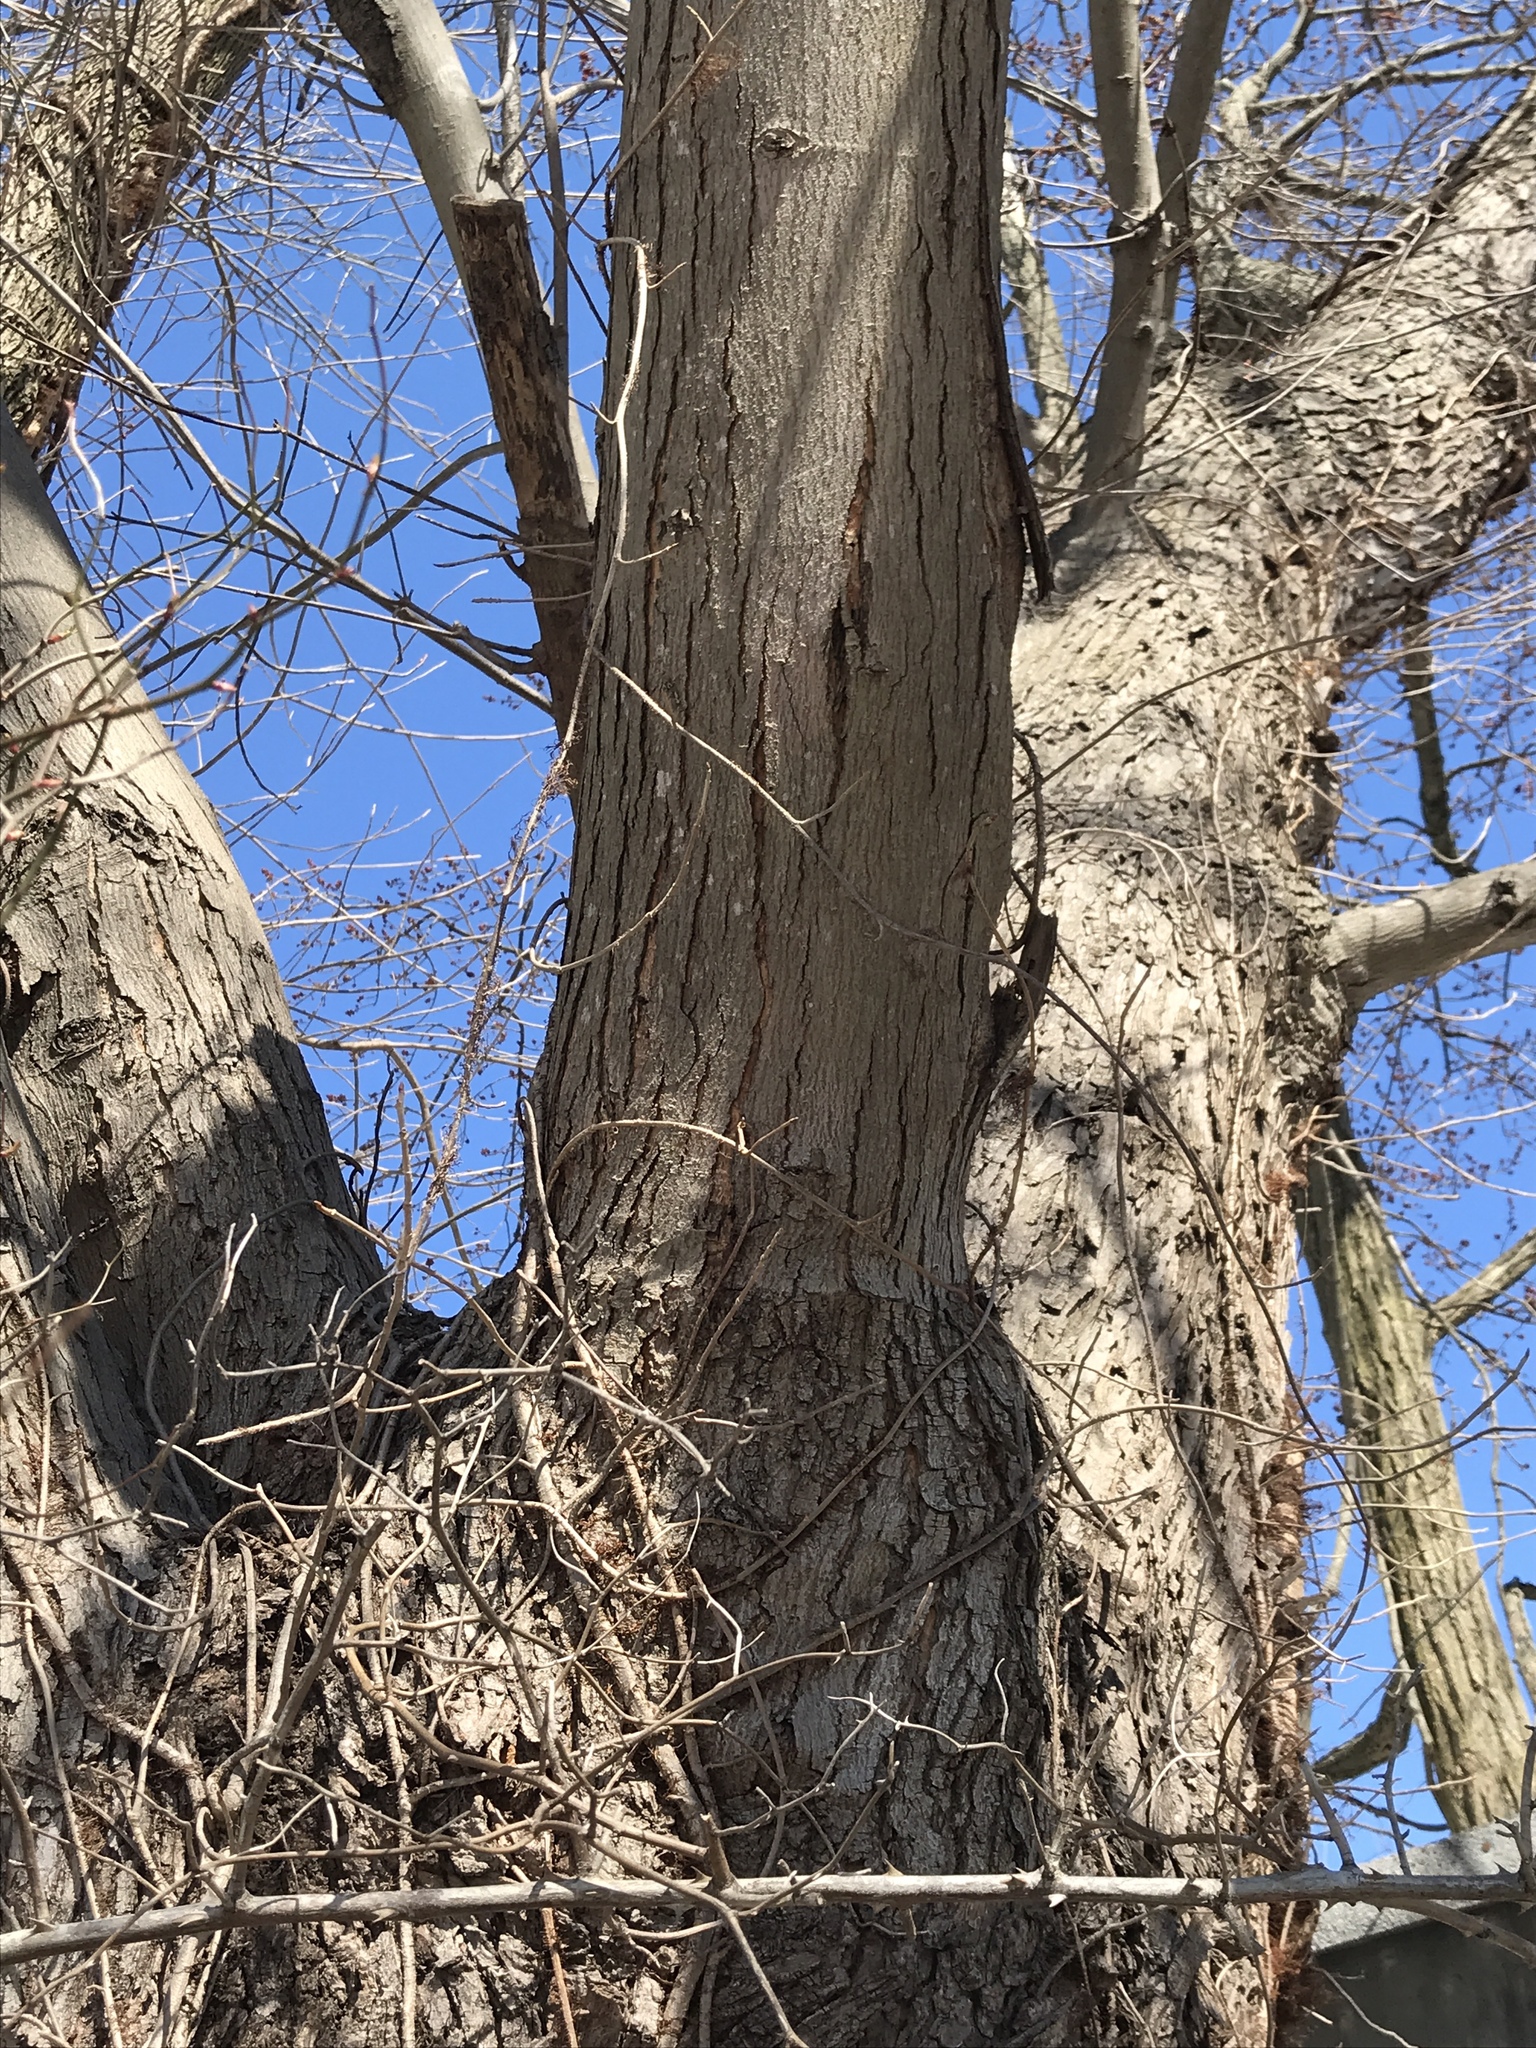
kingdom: Plantae
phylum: Tracheophyta
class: Magnoliopsida
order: Sapindales
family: Sapindaceae
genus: Acer
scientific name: Acer saccharinum
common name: Silver maple
